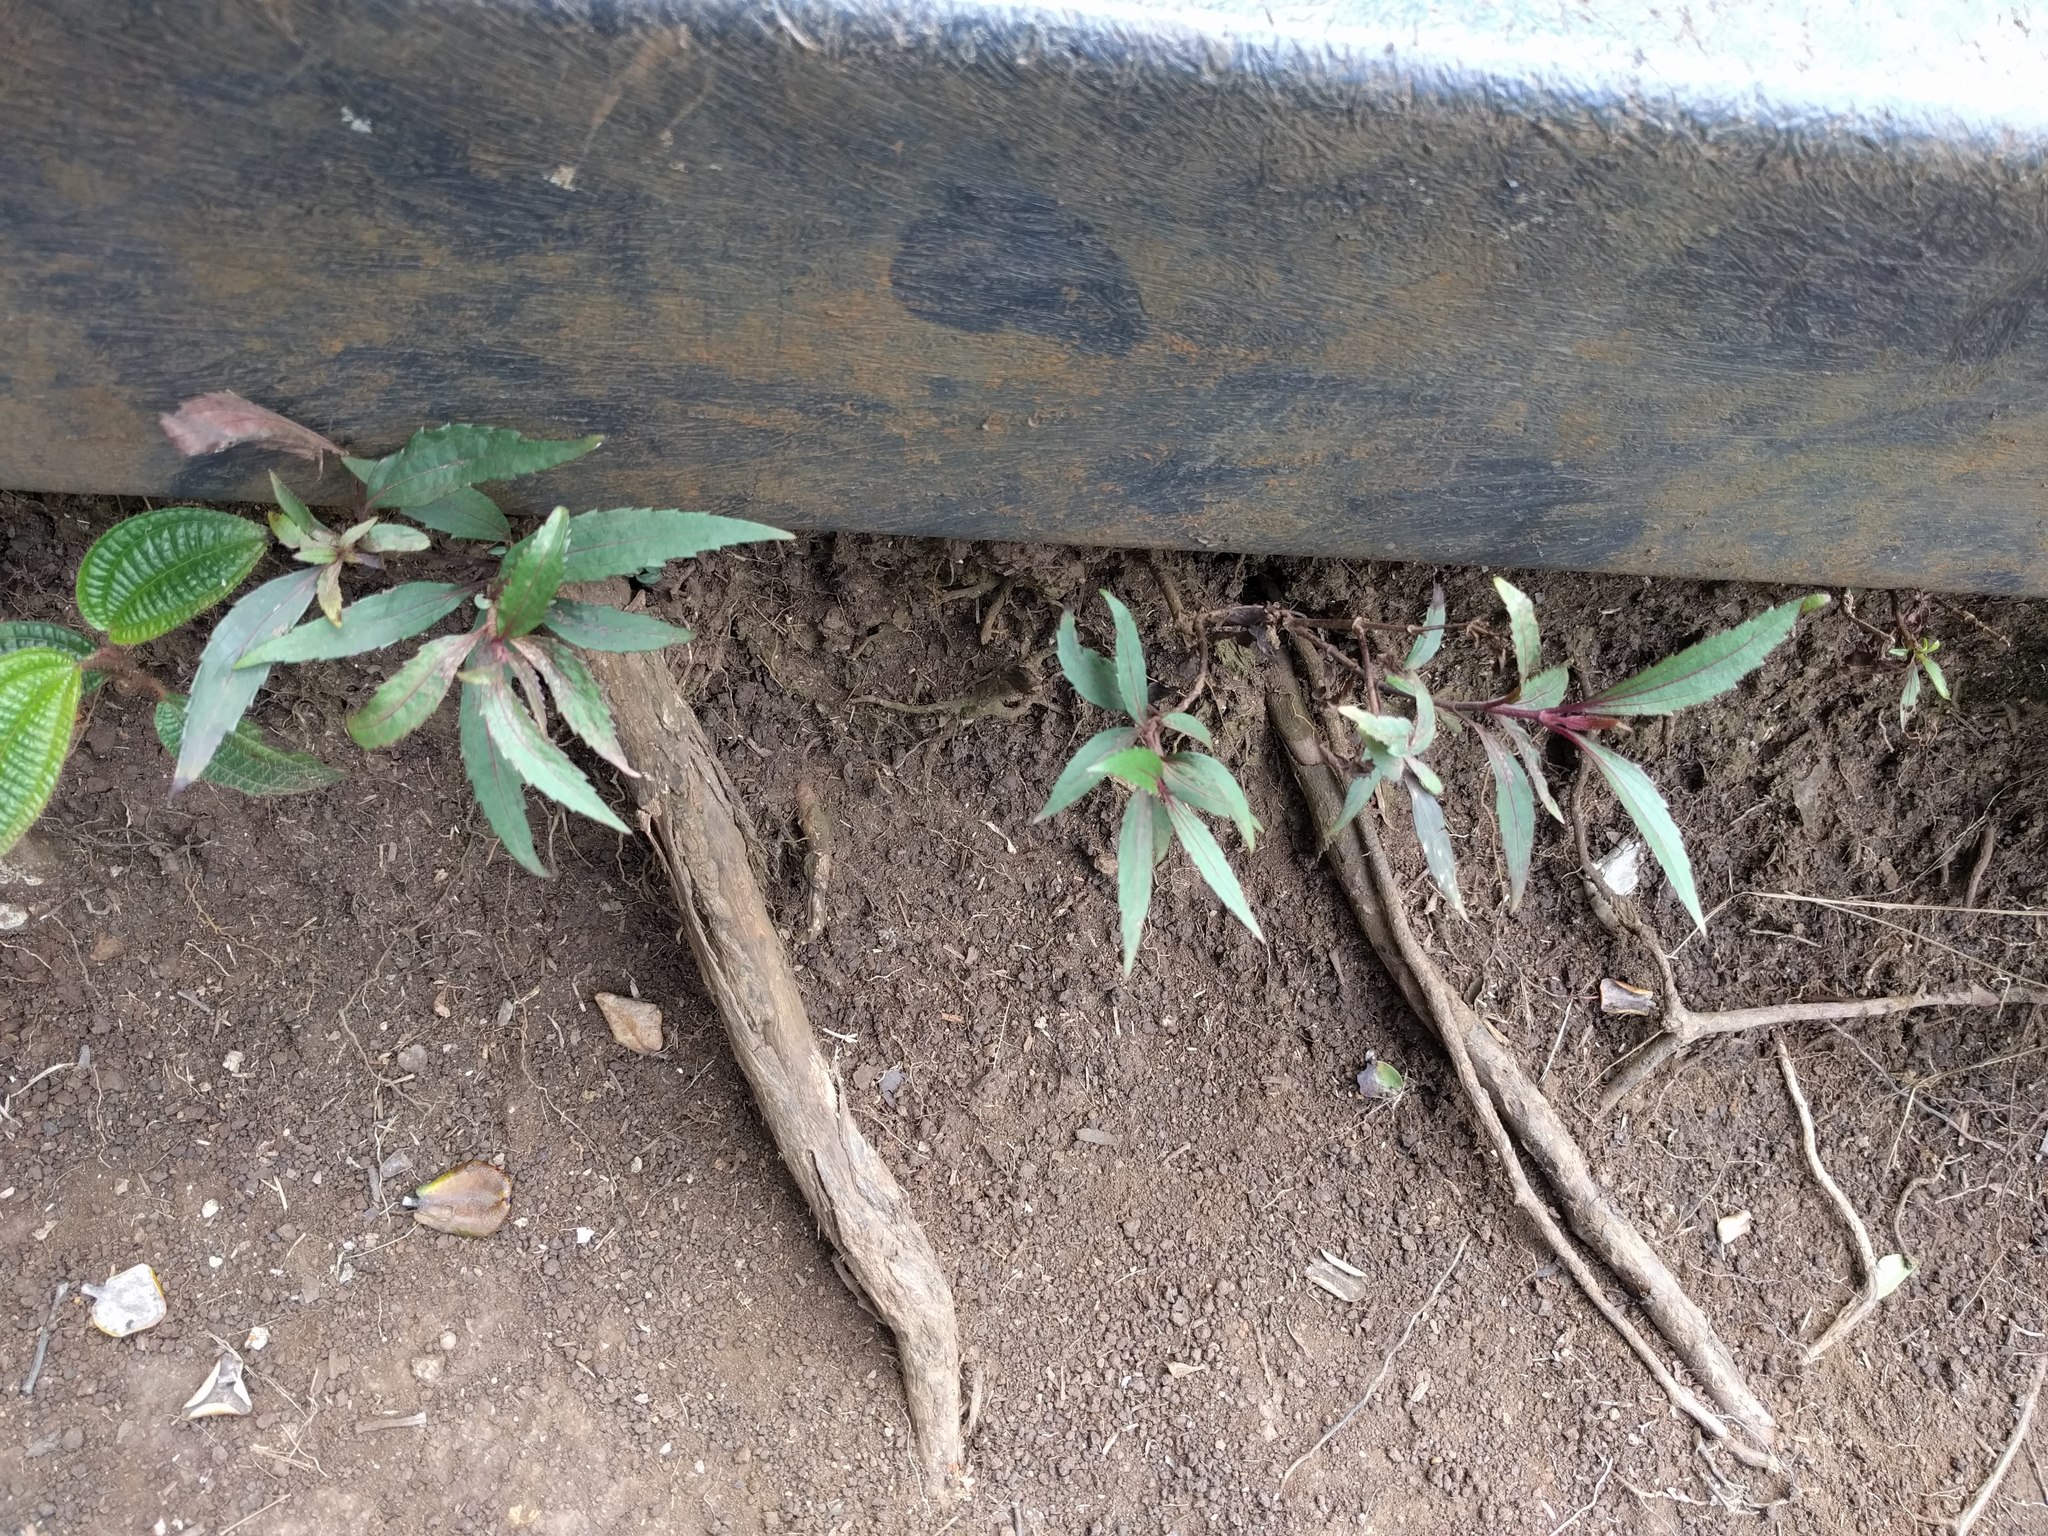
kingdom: Plantae
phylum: Tracheophyta
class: Magnoliopsida
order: Asterales
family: Asteraceae
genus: Ageratina
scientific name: Ageratina riparia
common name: Creeping croftonweed
